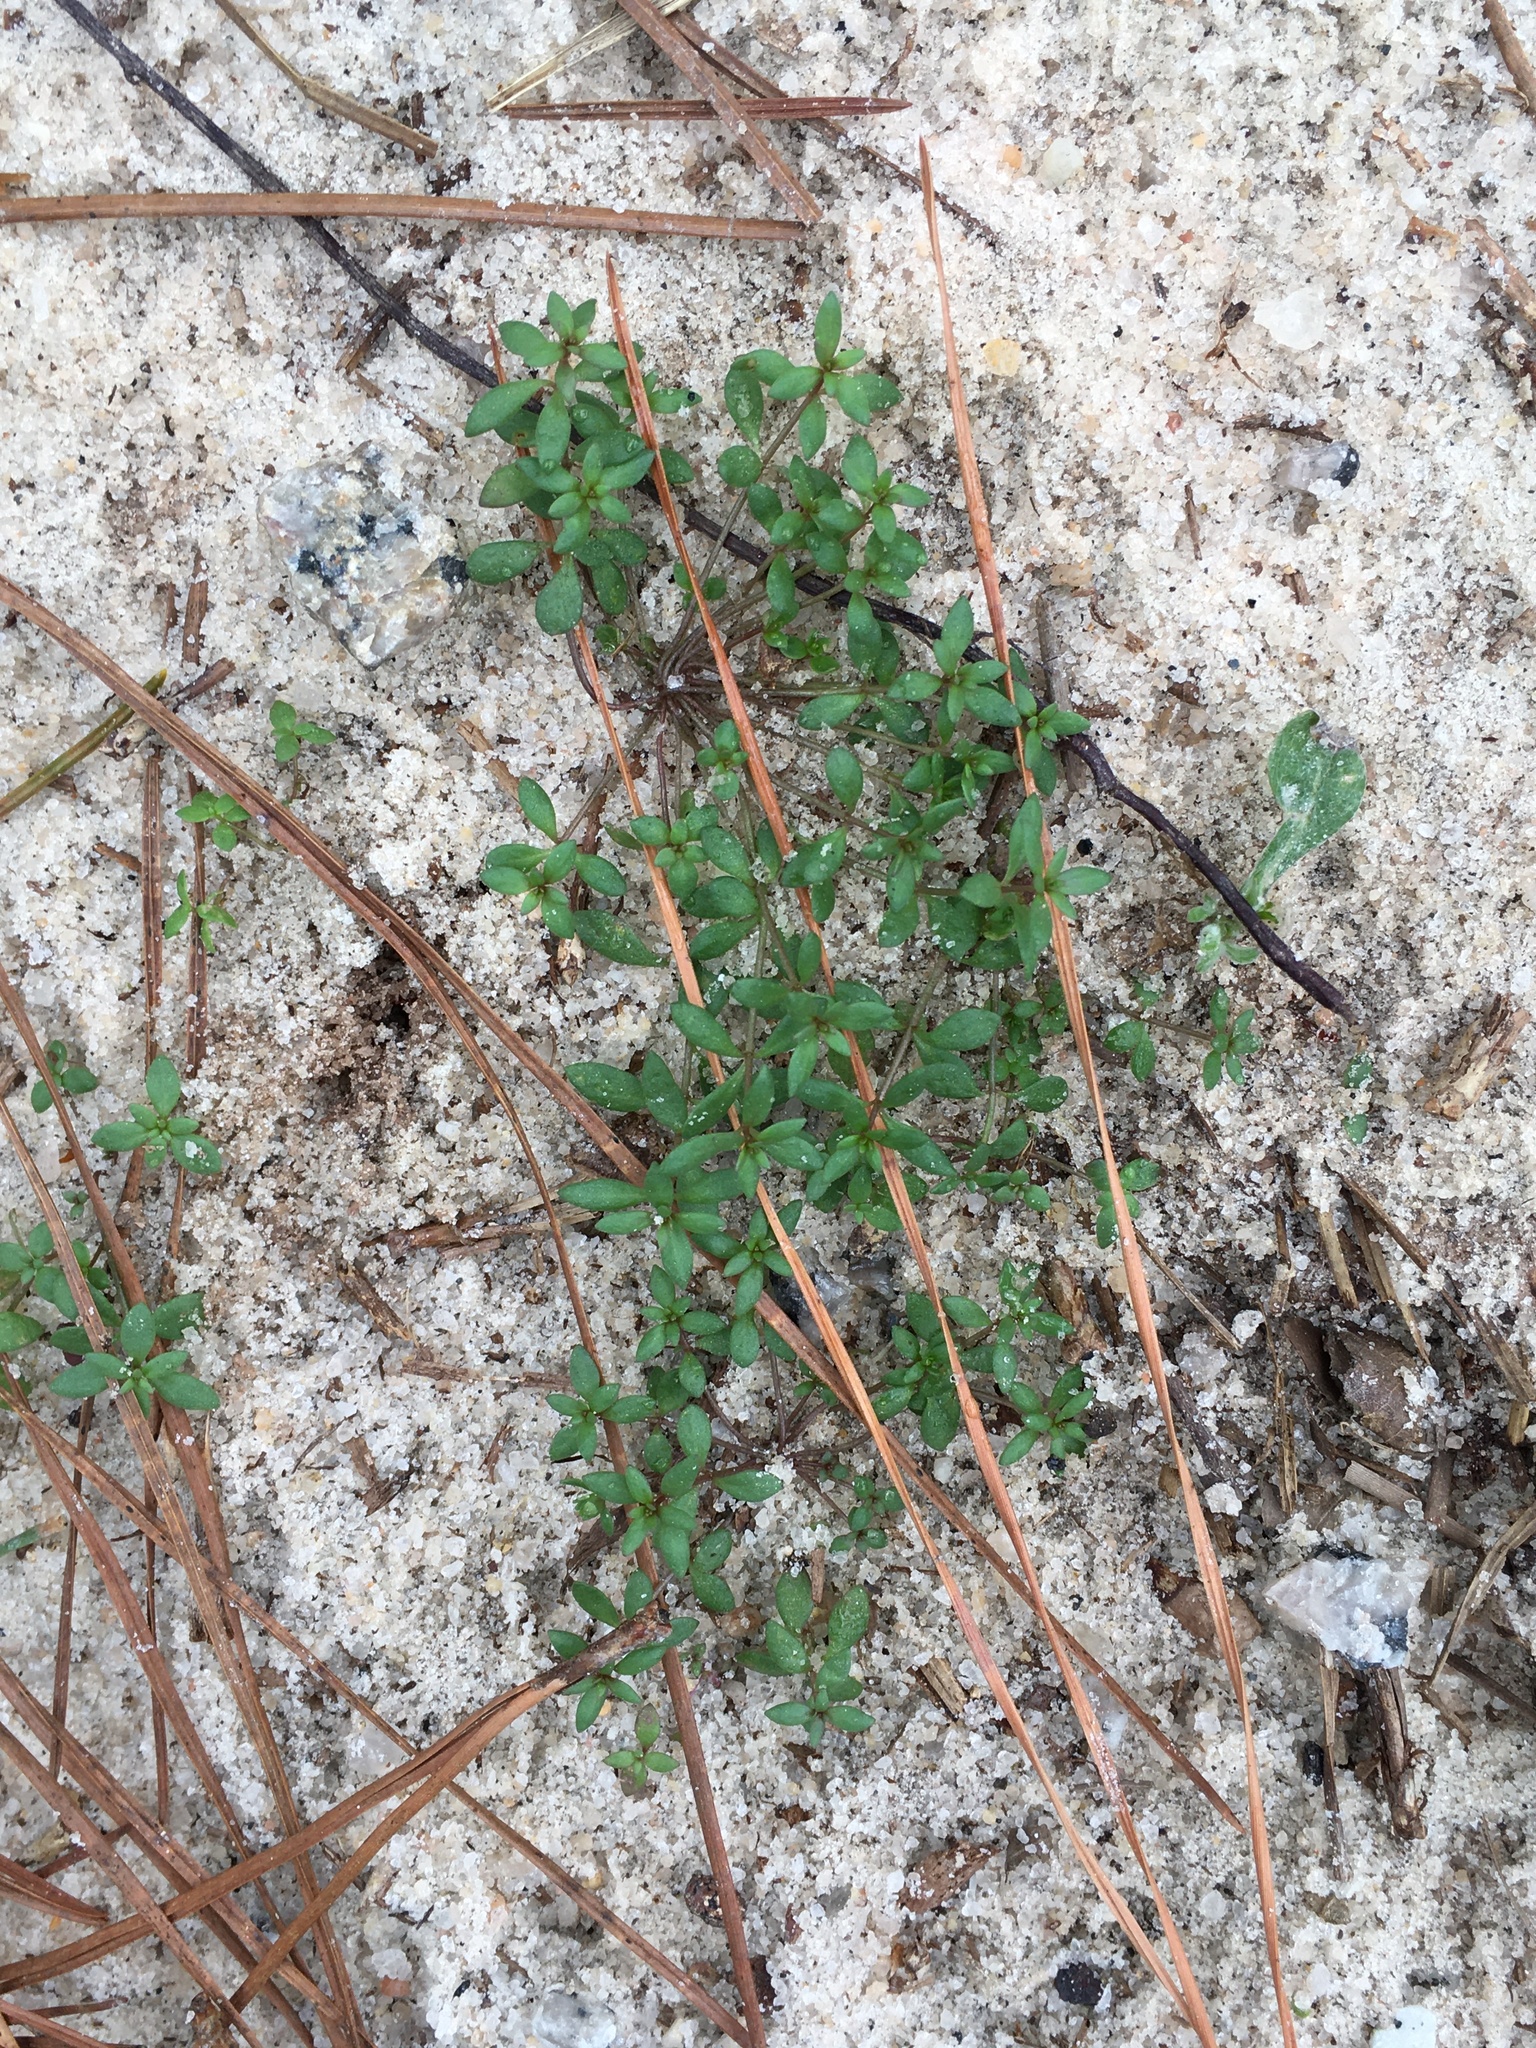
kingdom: Plantae
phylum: Tracheophyta
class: Magnoliopsida
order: Lamiales
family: Plantaginaceae
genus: Nuttallanthus
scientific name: Nuttallanthus canadensis
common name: Blue toadflax
